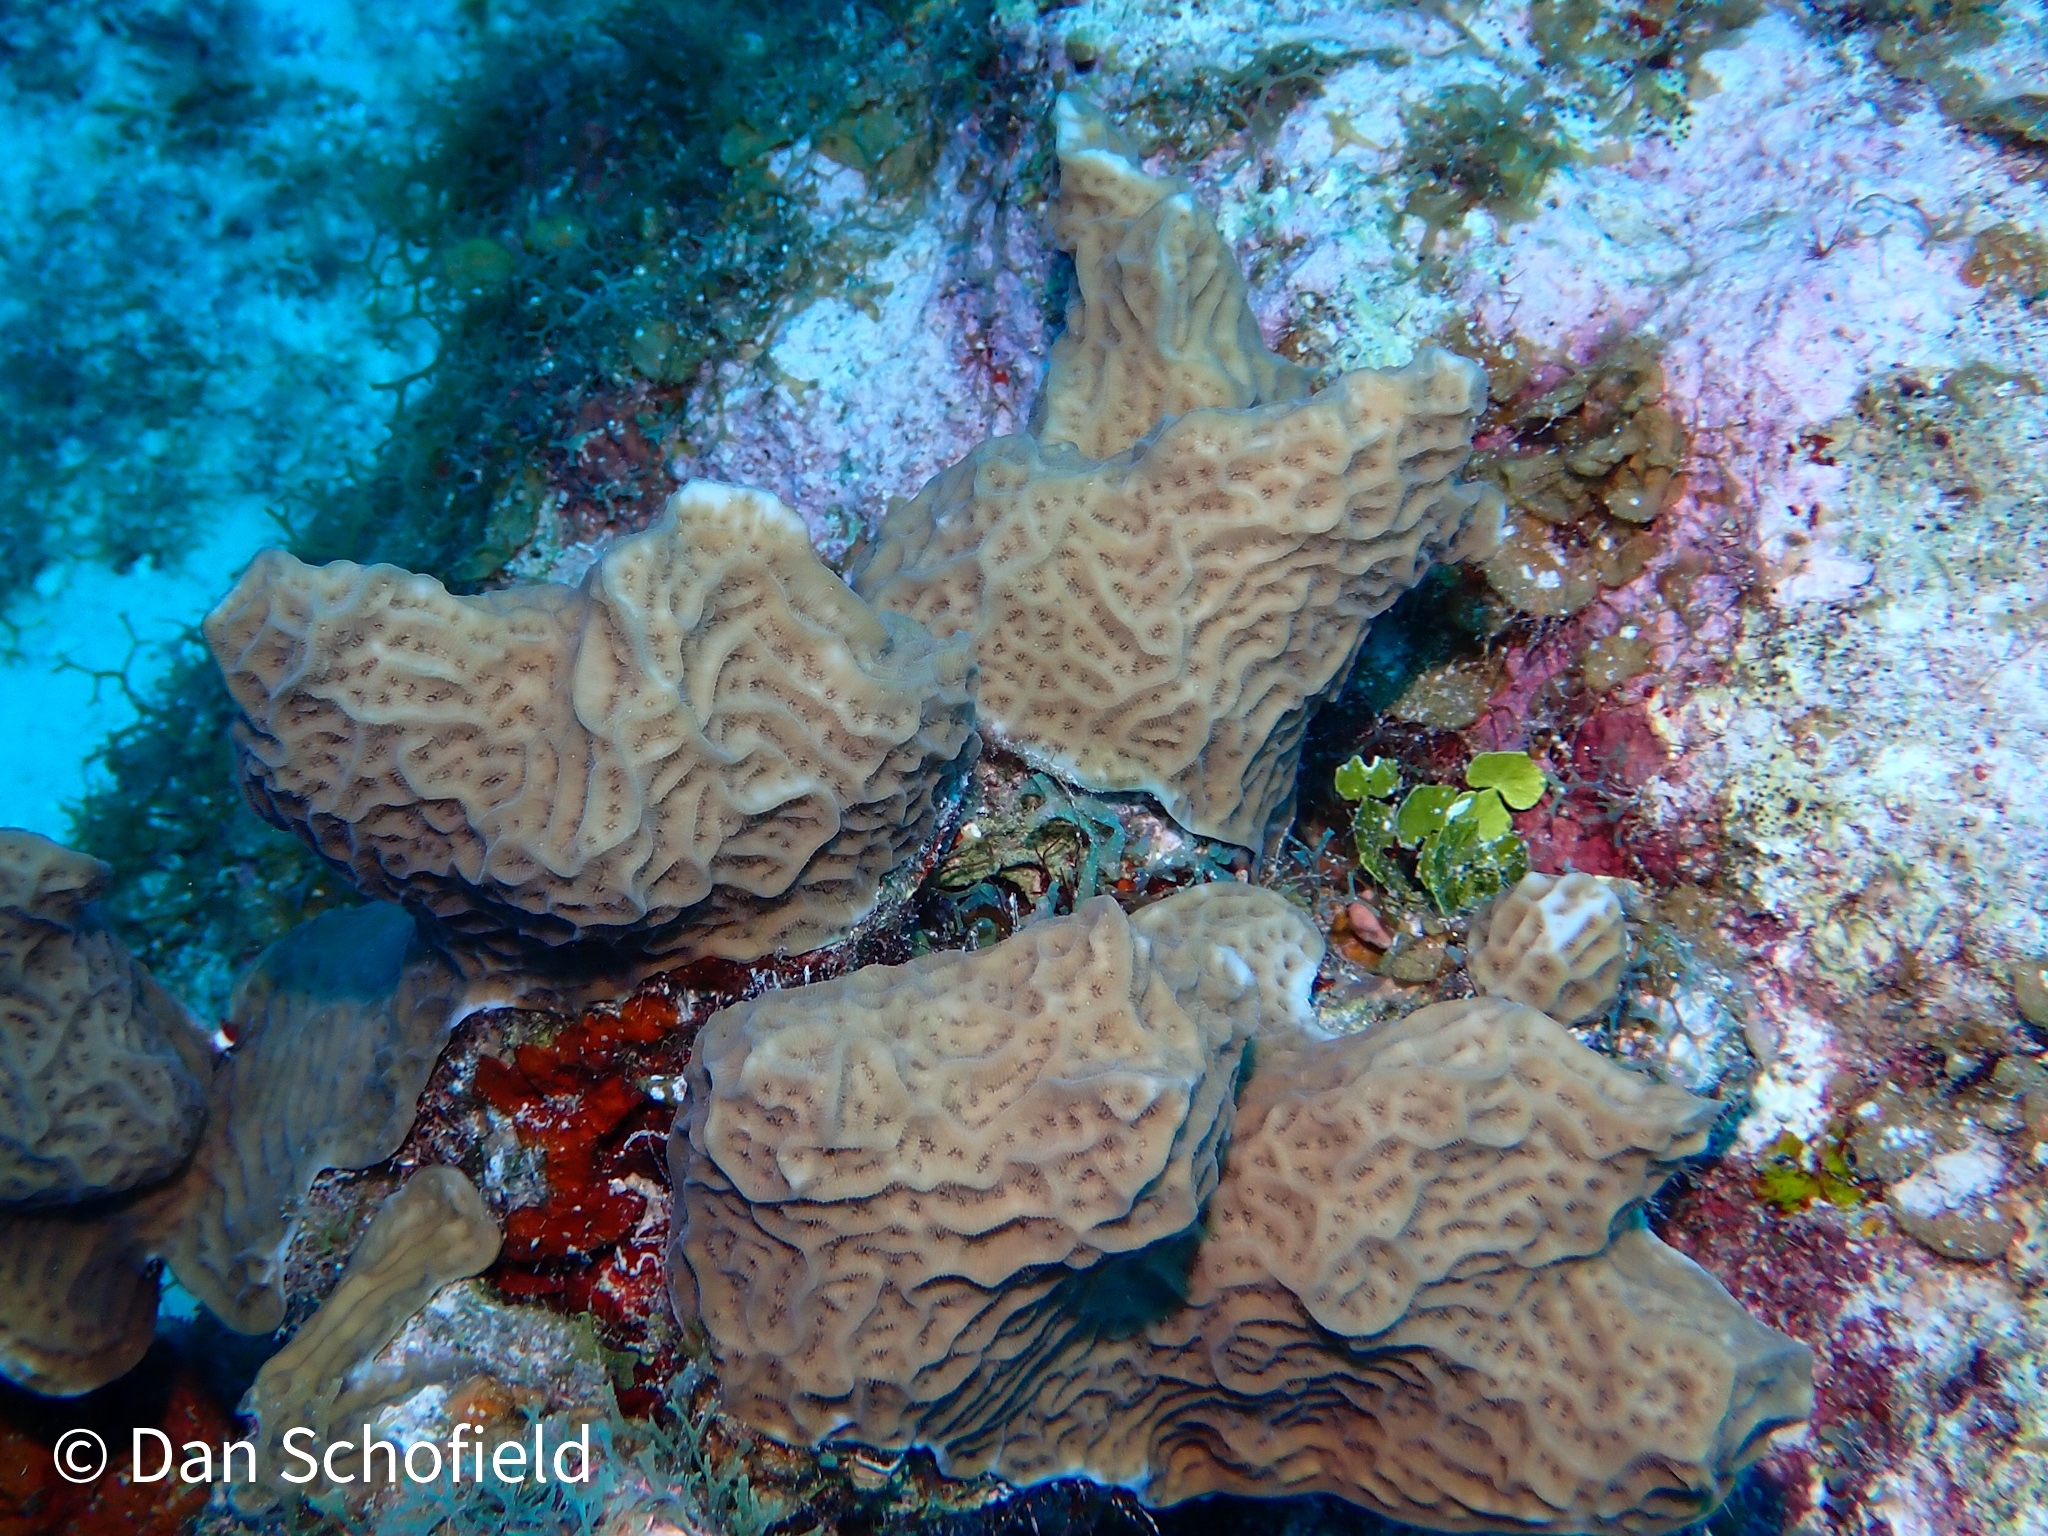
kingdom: Animalia
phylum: Cnidaria
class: Anthozoa
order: Scleractinia
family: Agariciidae
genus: Agaricia
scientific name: Agaricia agaricites
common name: Lettuce coral
